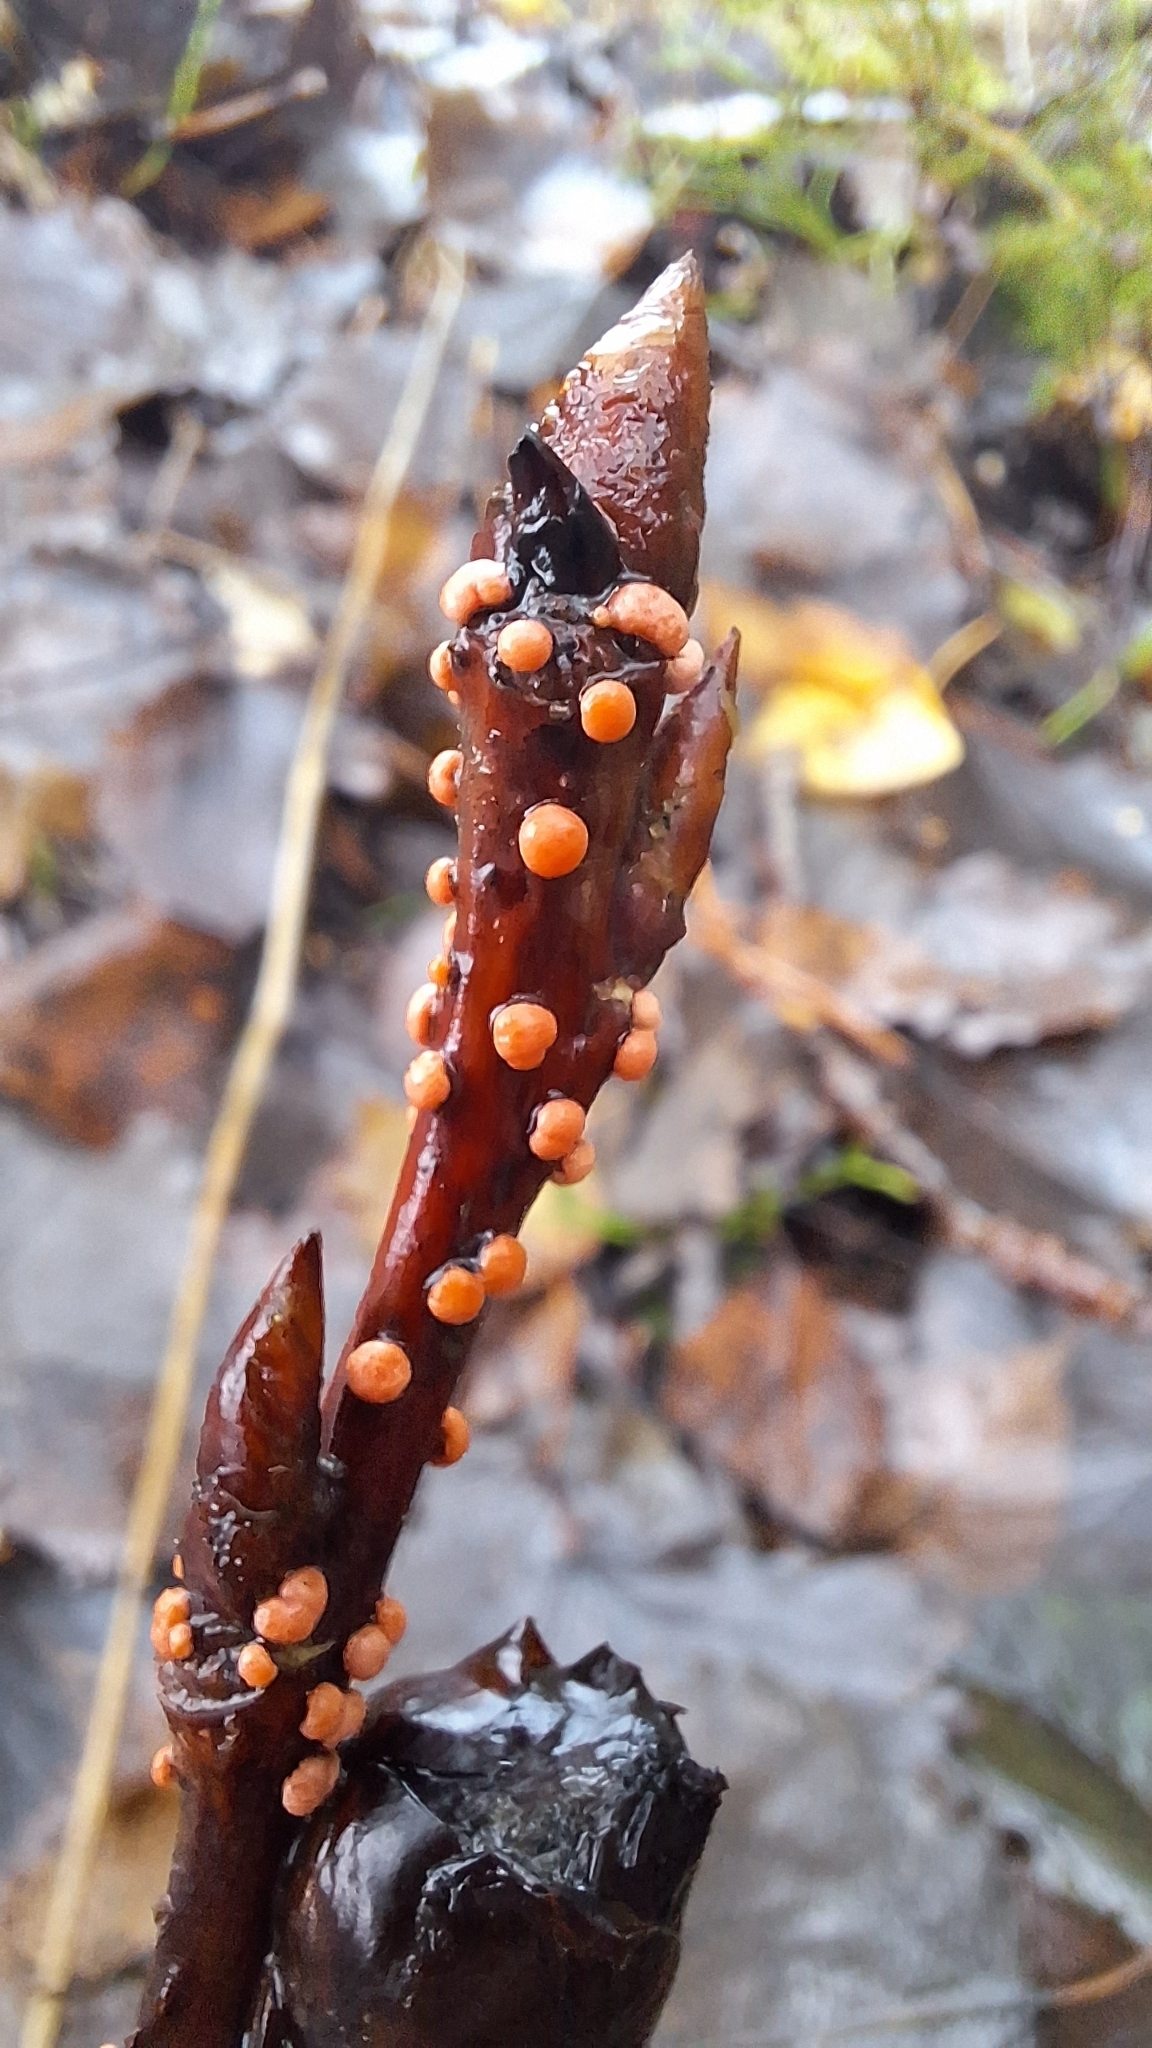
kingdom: Fungi
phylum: Ascomycota
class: Sordariomycetes
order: Hypocreales
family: Nectriaceae
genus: Nectria
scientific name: Nectria cinnabarina
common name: Coral spot
